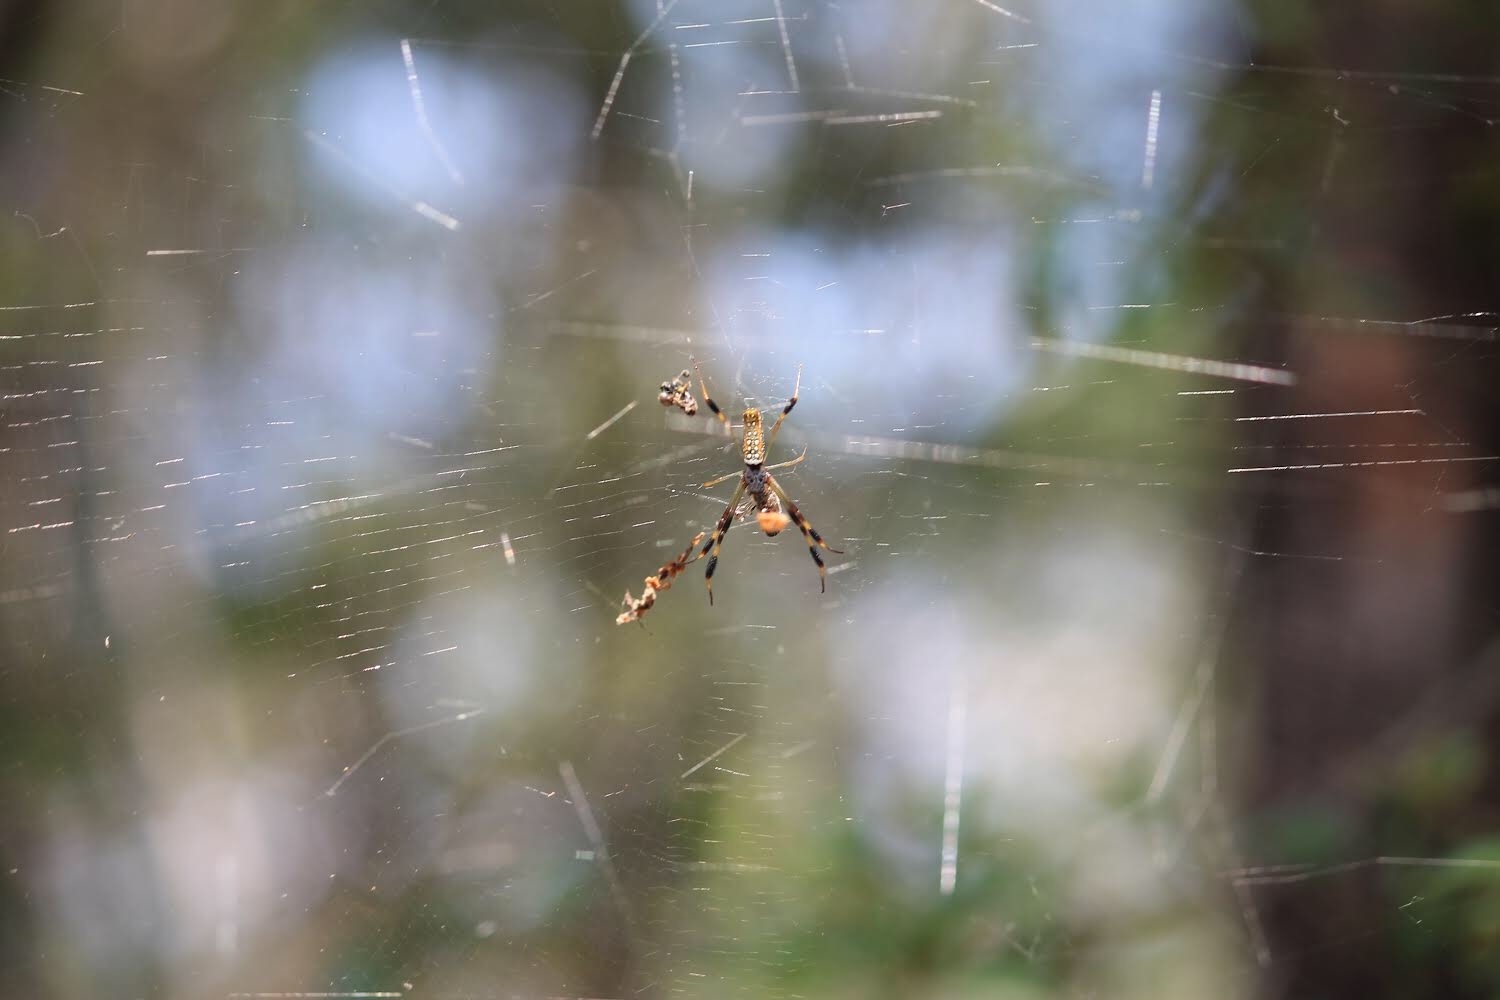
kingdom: Animalia
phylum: Arthropoda
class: Arachnida
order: Araneae
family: Araneidae
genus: Trichonephila
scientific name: Trichonephila clavipes
